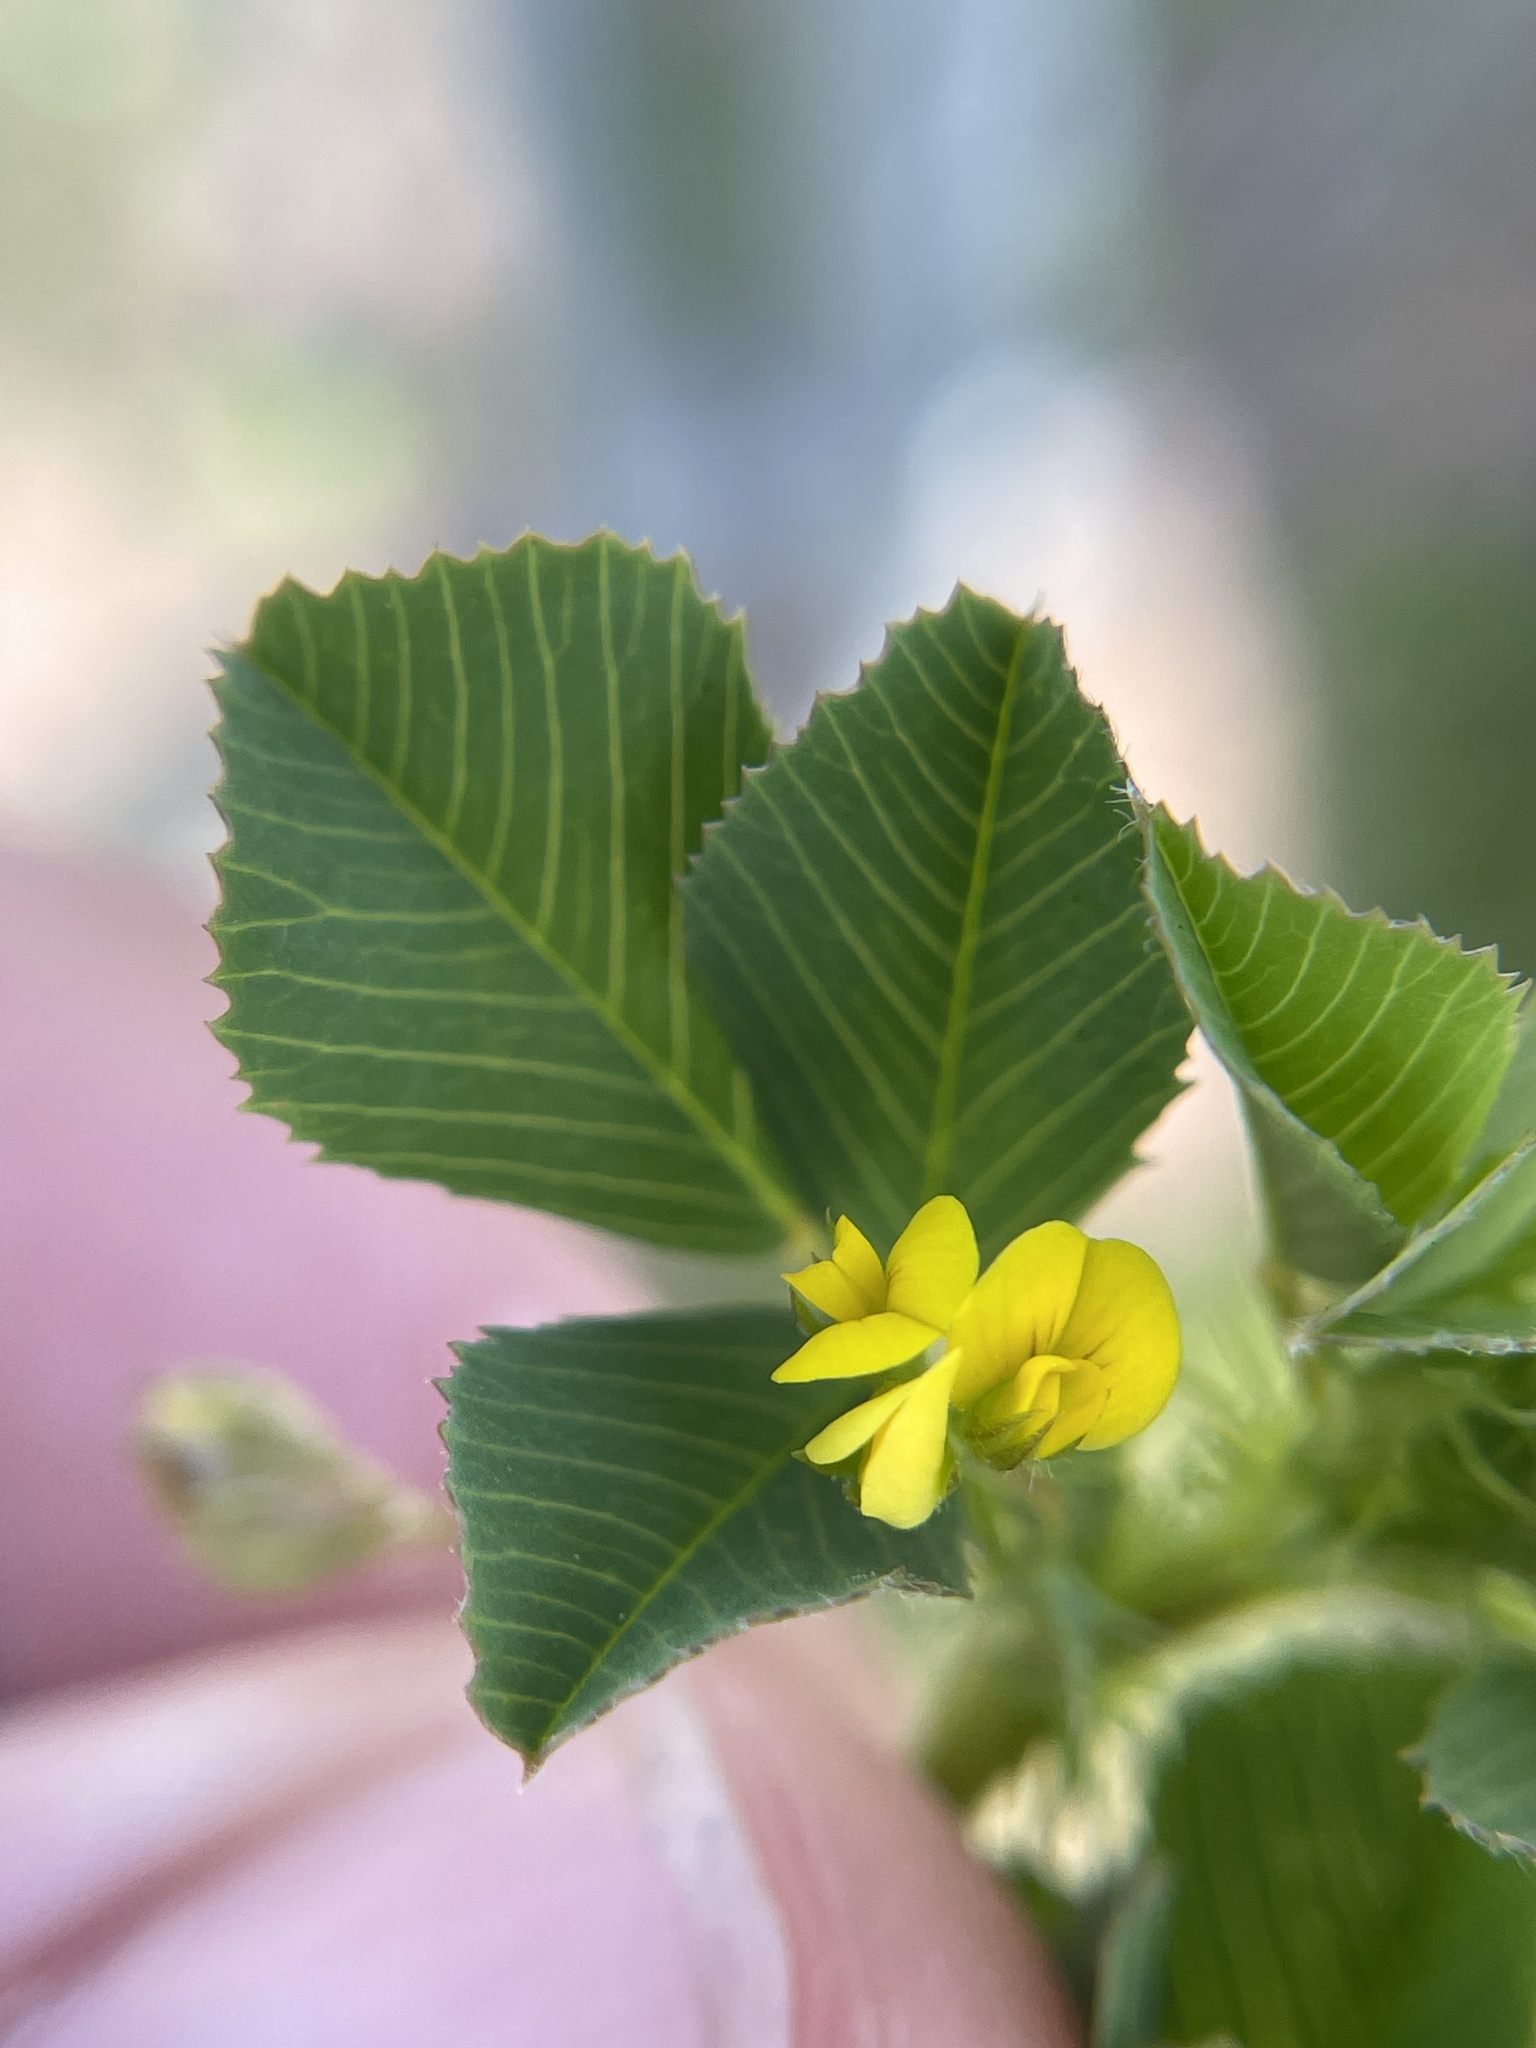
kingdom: Plantae
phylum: Tracheophyta
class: Magnoliopsida
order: Fabales
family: Fabaceae
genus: Medicago
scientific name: Medicago polymorpha
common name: Burclover
